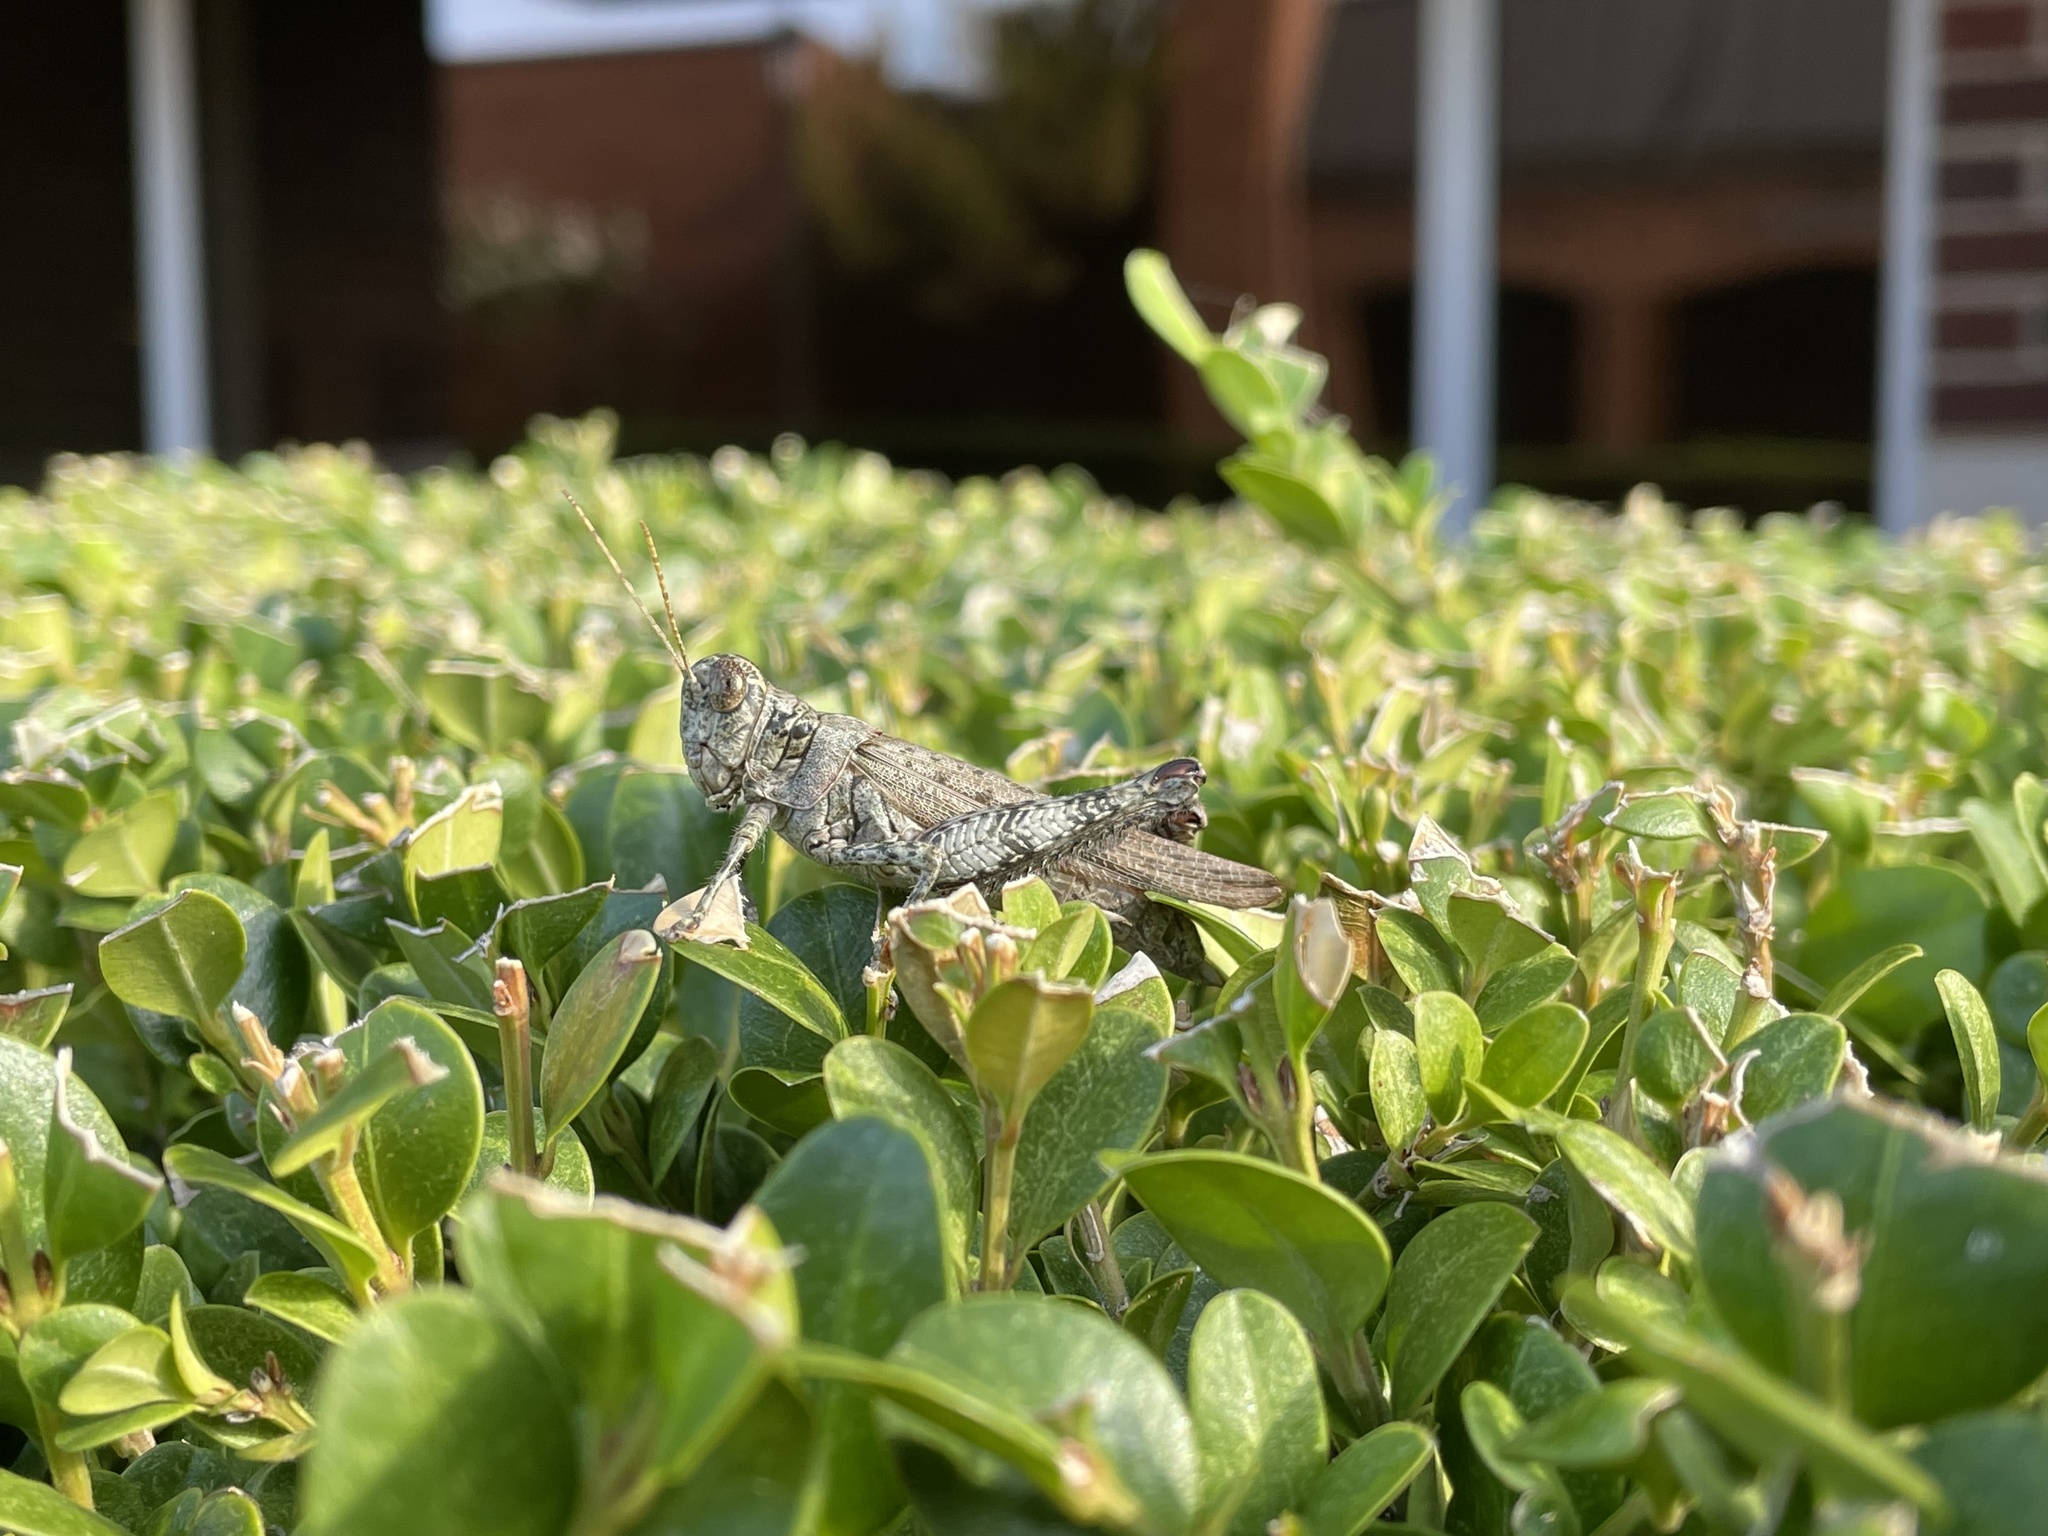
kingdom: Animalia
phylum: Arthropoda
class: Insecta
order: Orthoptera
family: Acrididae
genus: Melanoplus
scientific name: Melanoplus punctulatus
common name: Pine-tree spur-throat grasshopper
